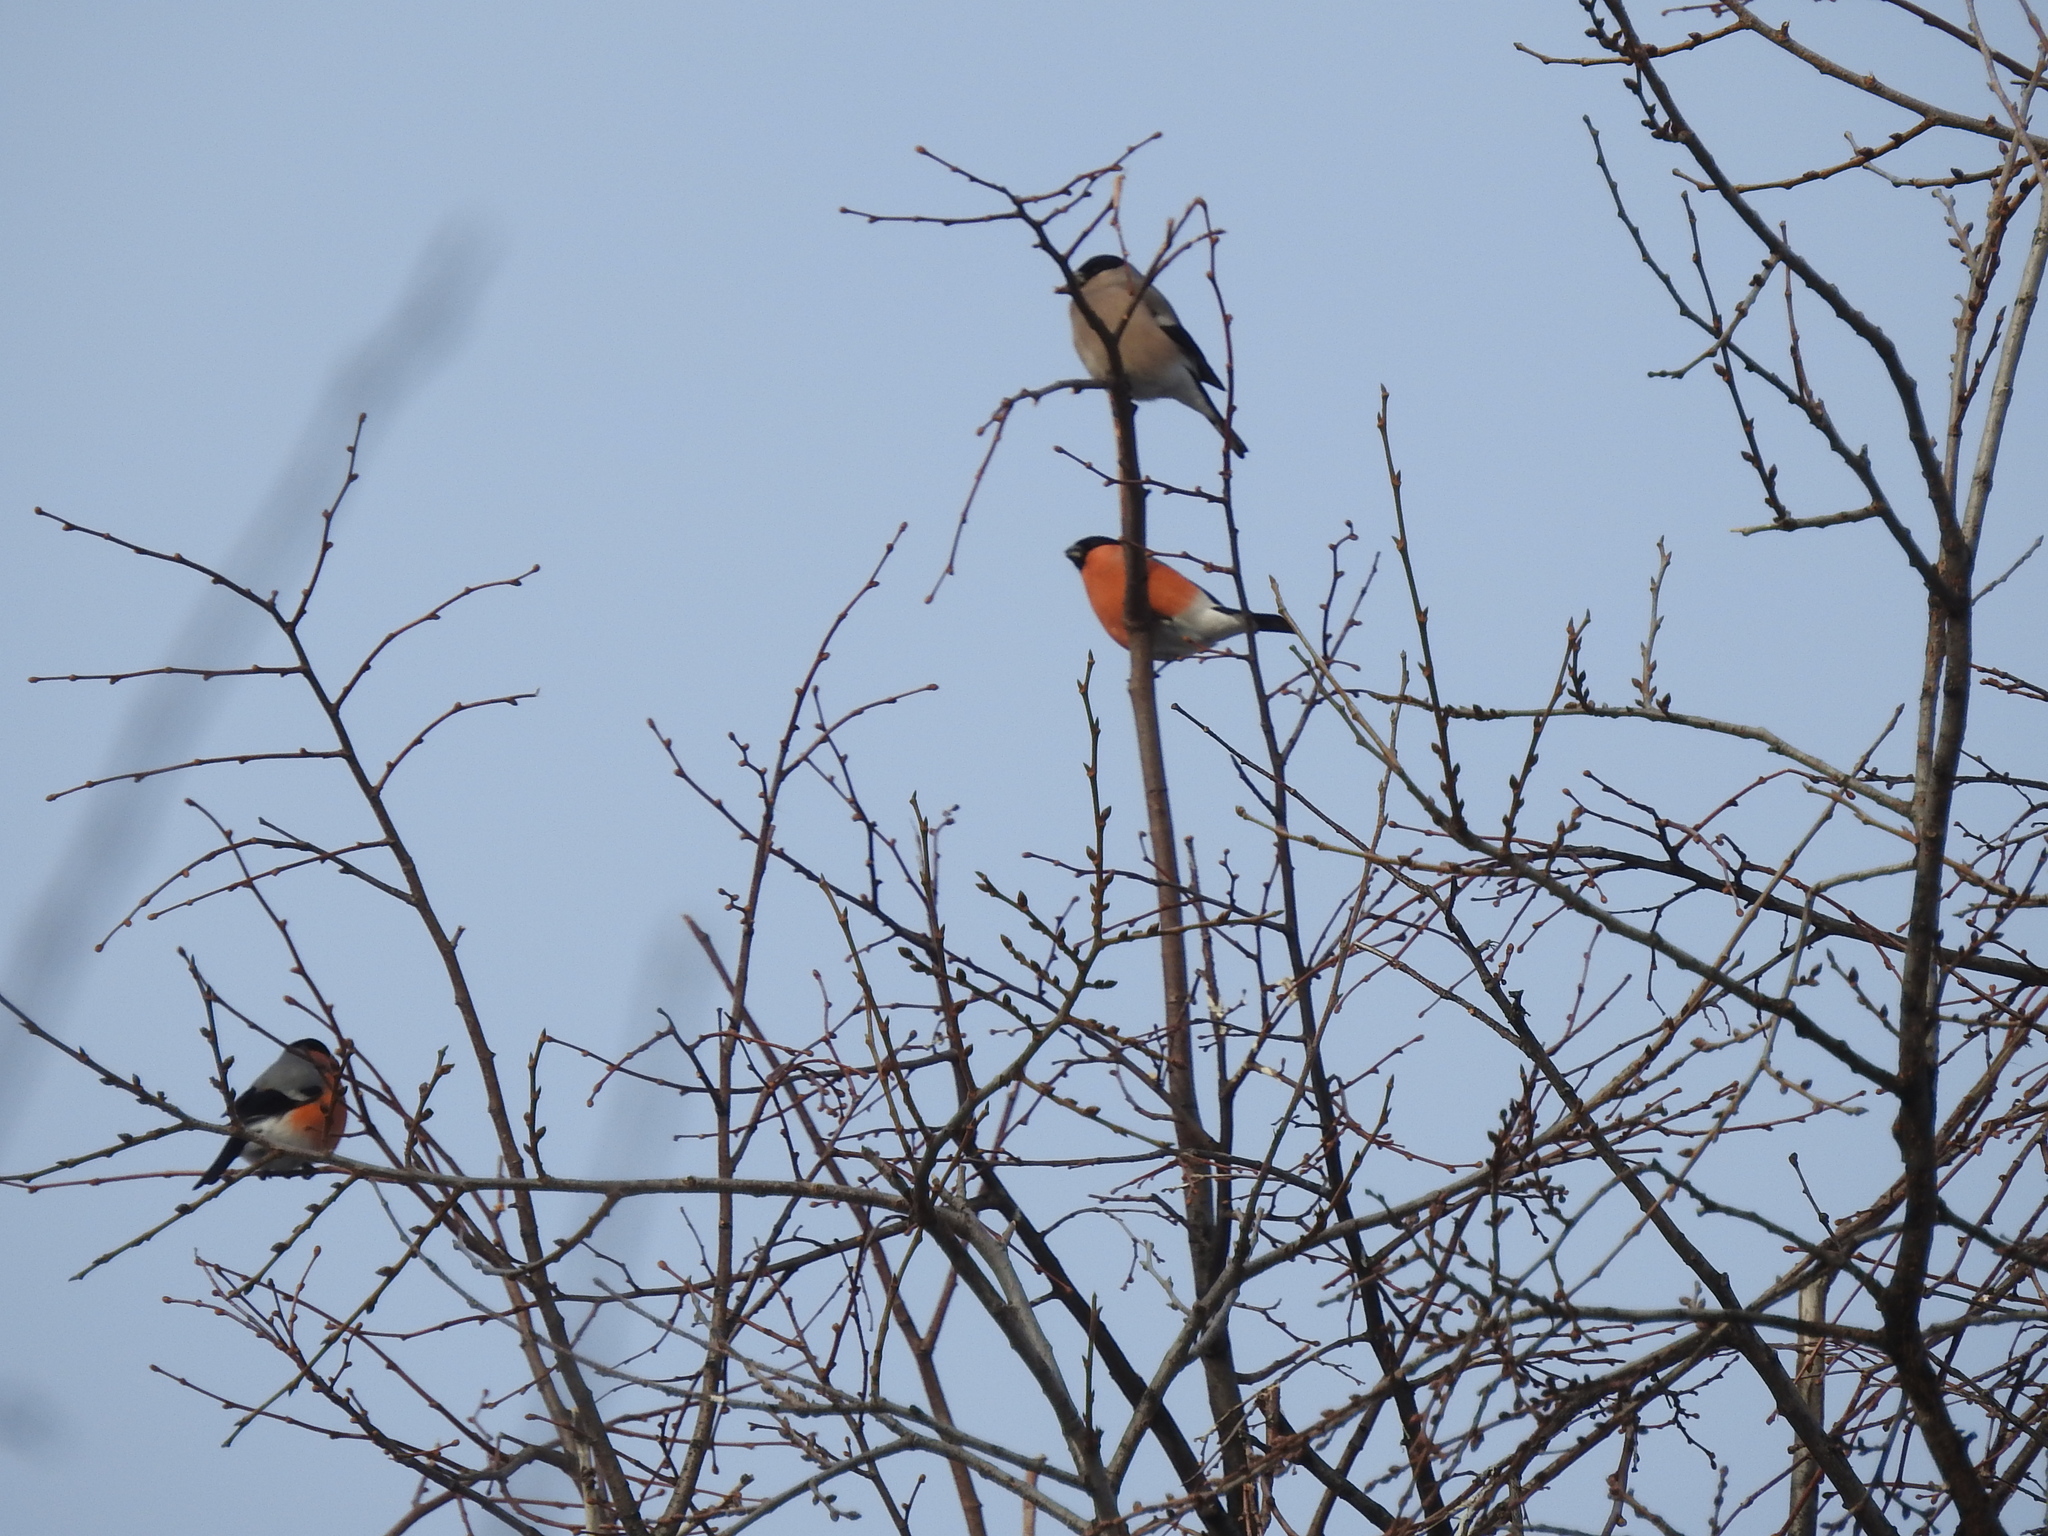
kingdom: Animalia
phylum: Chordata
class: Aves
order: Passeriformes
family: Fringillidae
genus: Pyrrhula
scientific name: Pyrrhula pyrrhula
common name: Eurasian bullfinch
